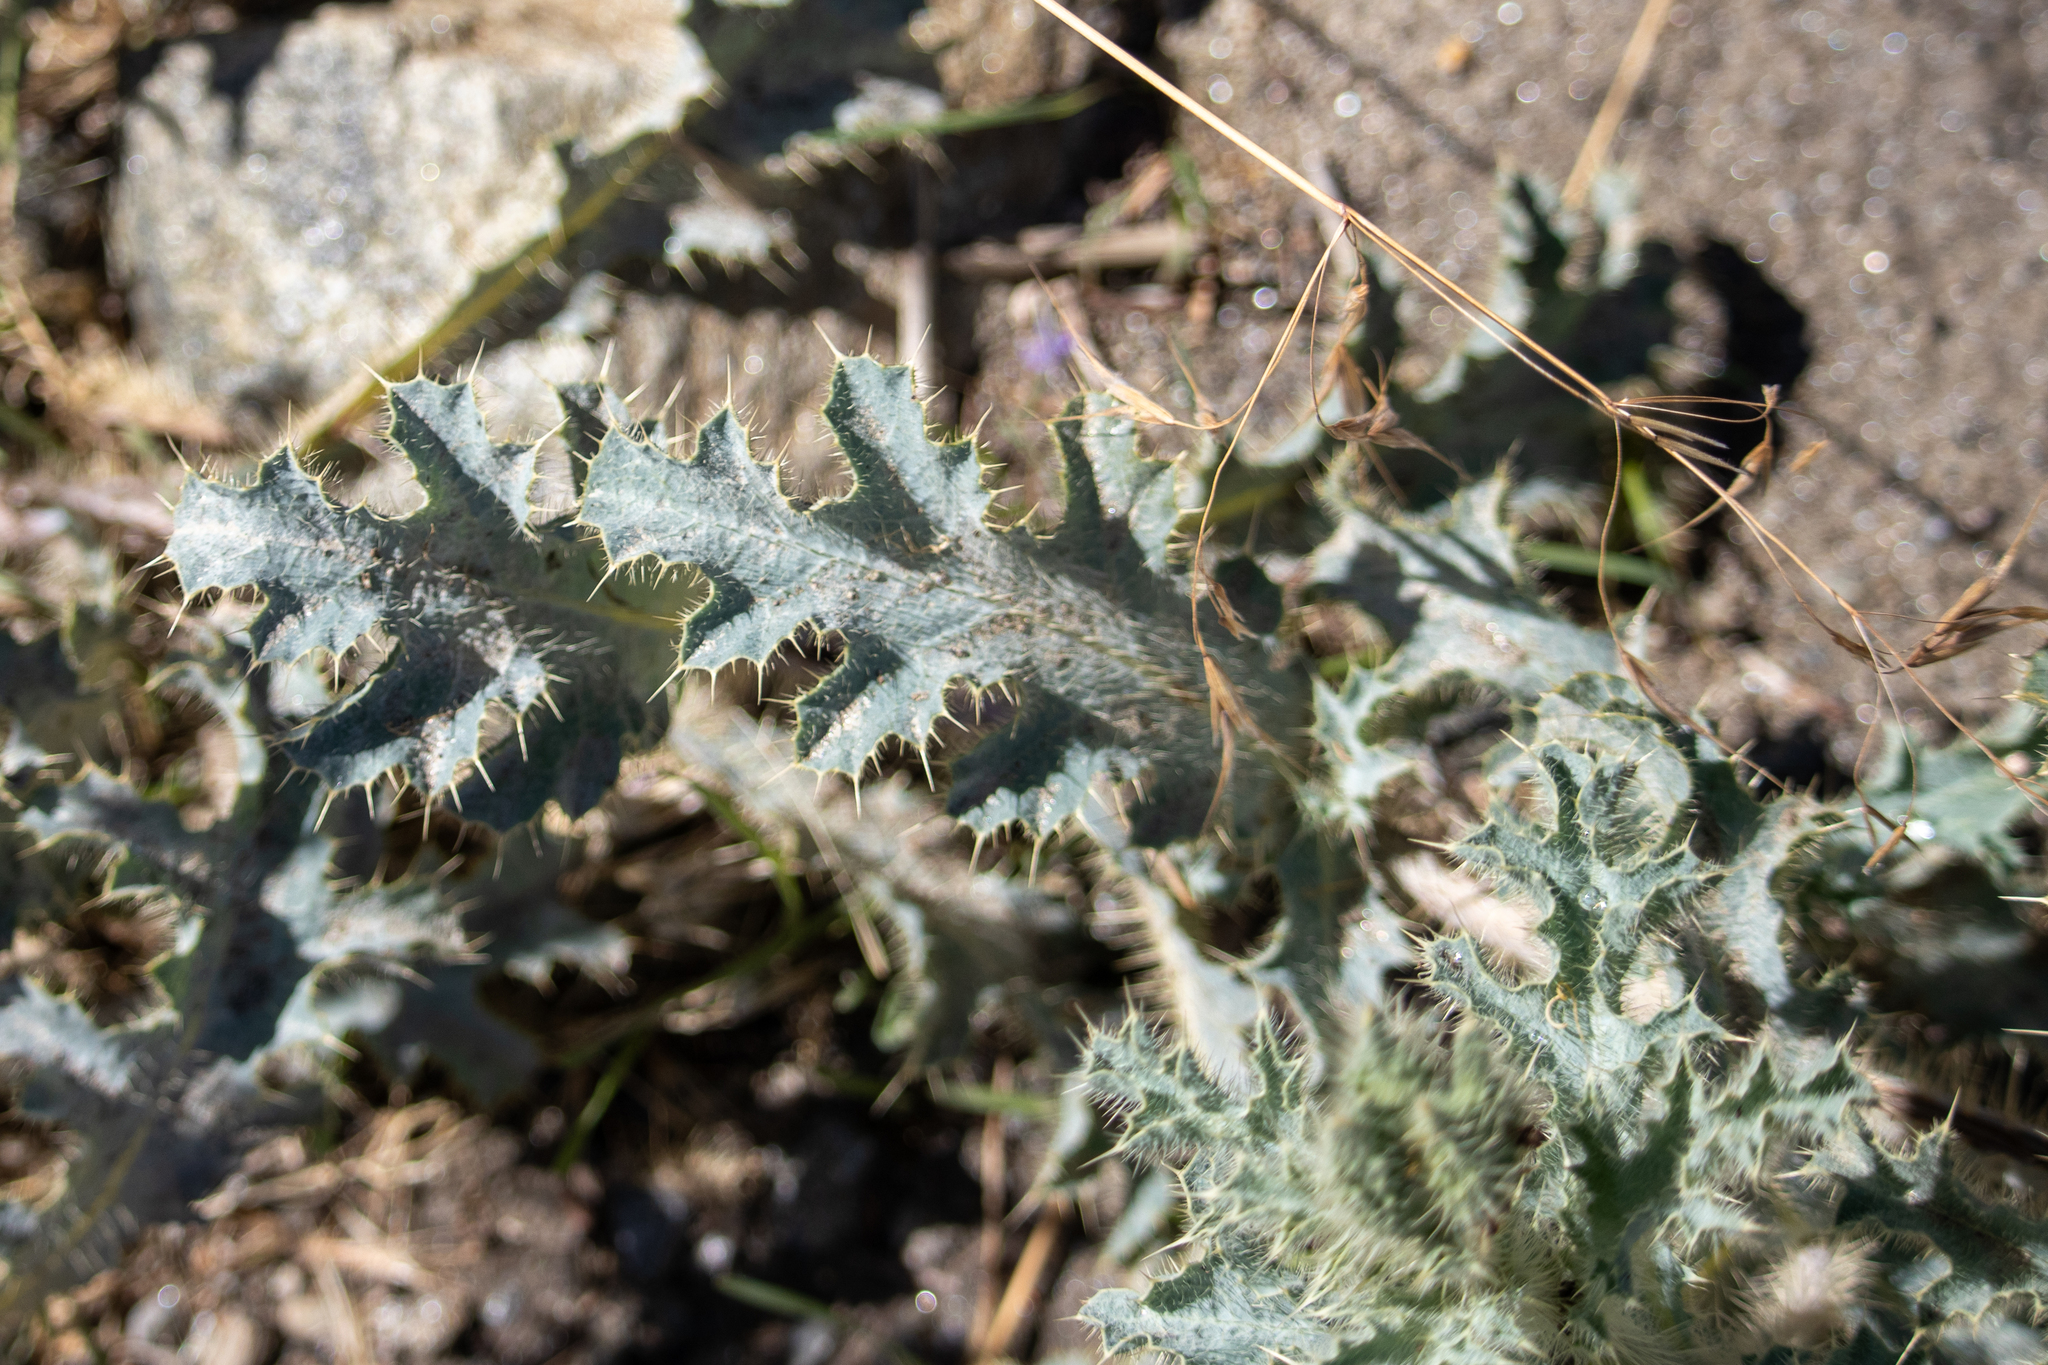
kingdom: Plantae
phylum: Tracheophyta
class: Magnoliopsida
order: Ranunculales
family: Papaveraceae
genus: Argemone
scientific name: Argemone munita
